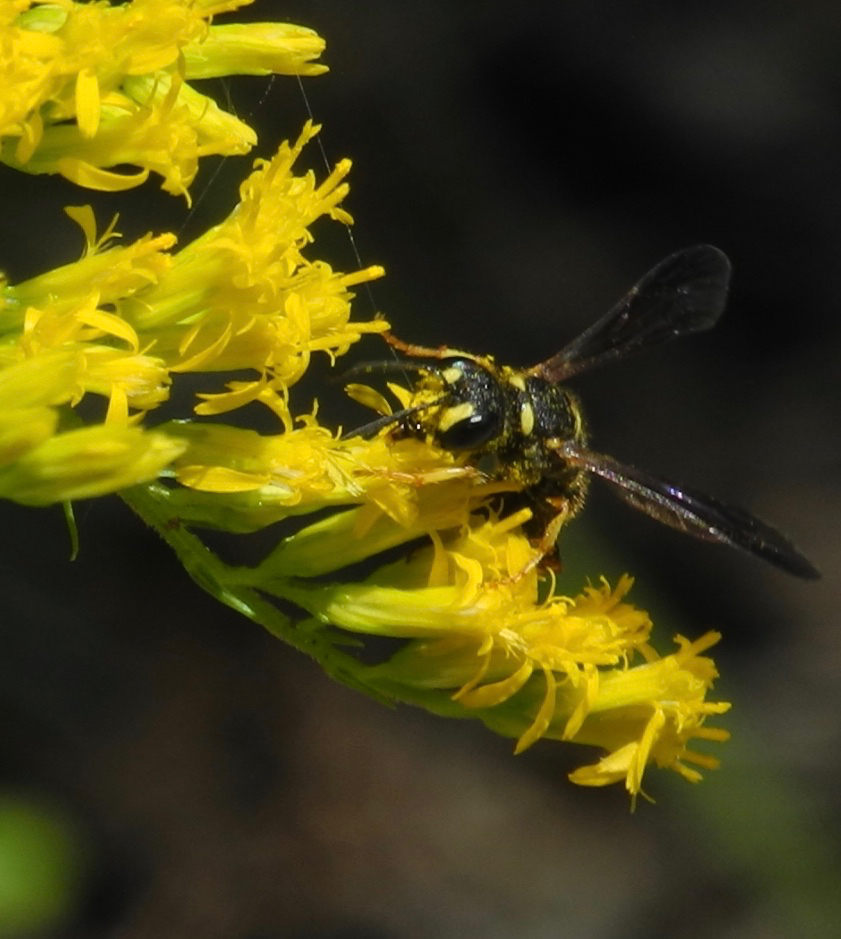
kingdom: Animalia
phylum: Arthropoda
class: Insecta
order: Hymenoptera
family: Crabronidae
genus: Cerceris
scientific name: Cerceris
